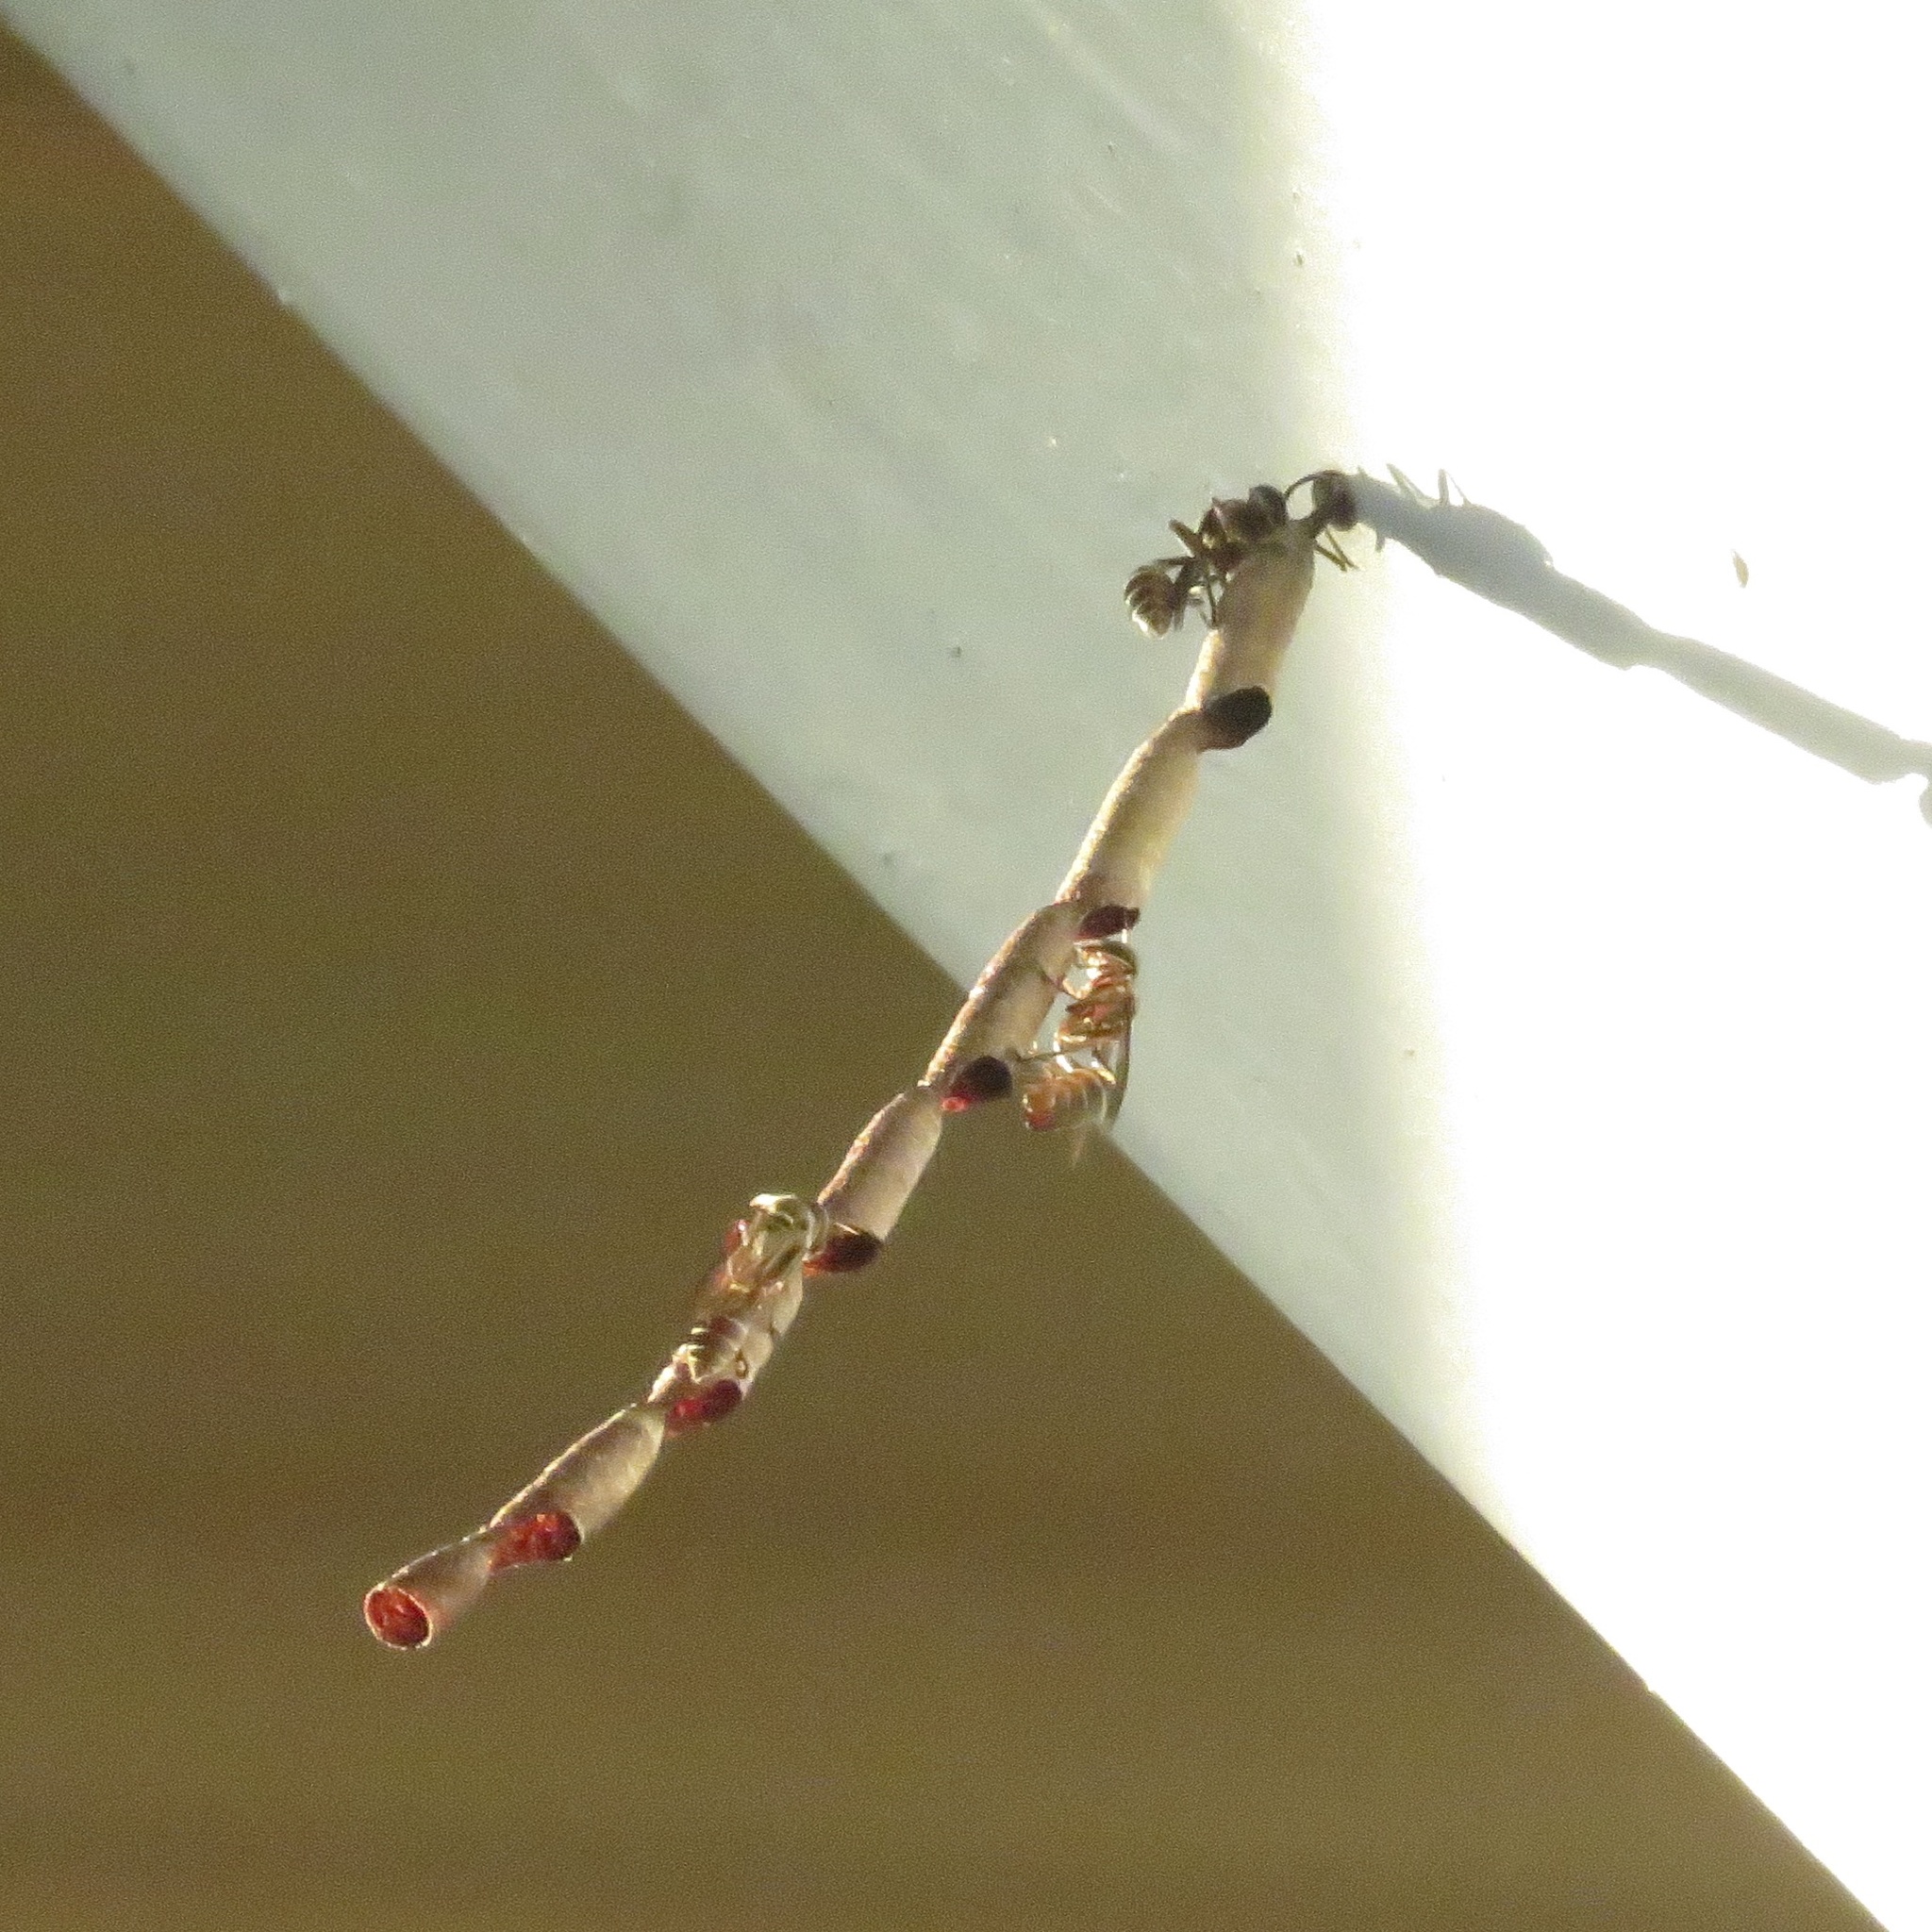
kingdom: Animalia
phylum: Arthropoda
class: Insecta
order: Hymenoptera
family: Vespidae
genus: Mischocyttarus
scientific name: Mischocyttarus vaqueroi
